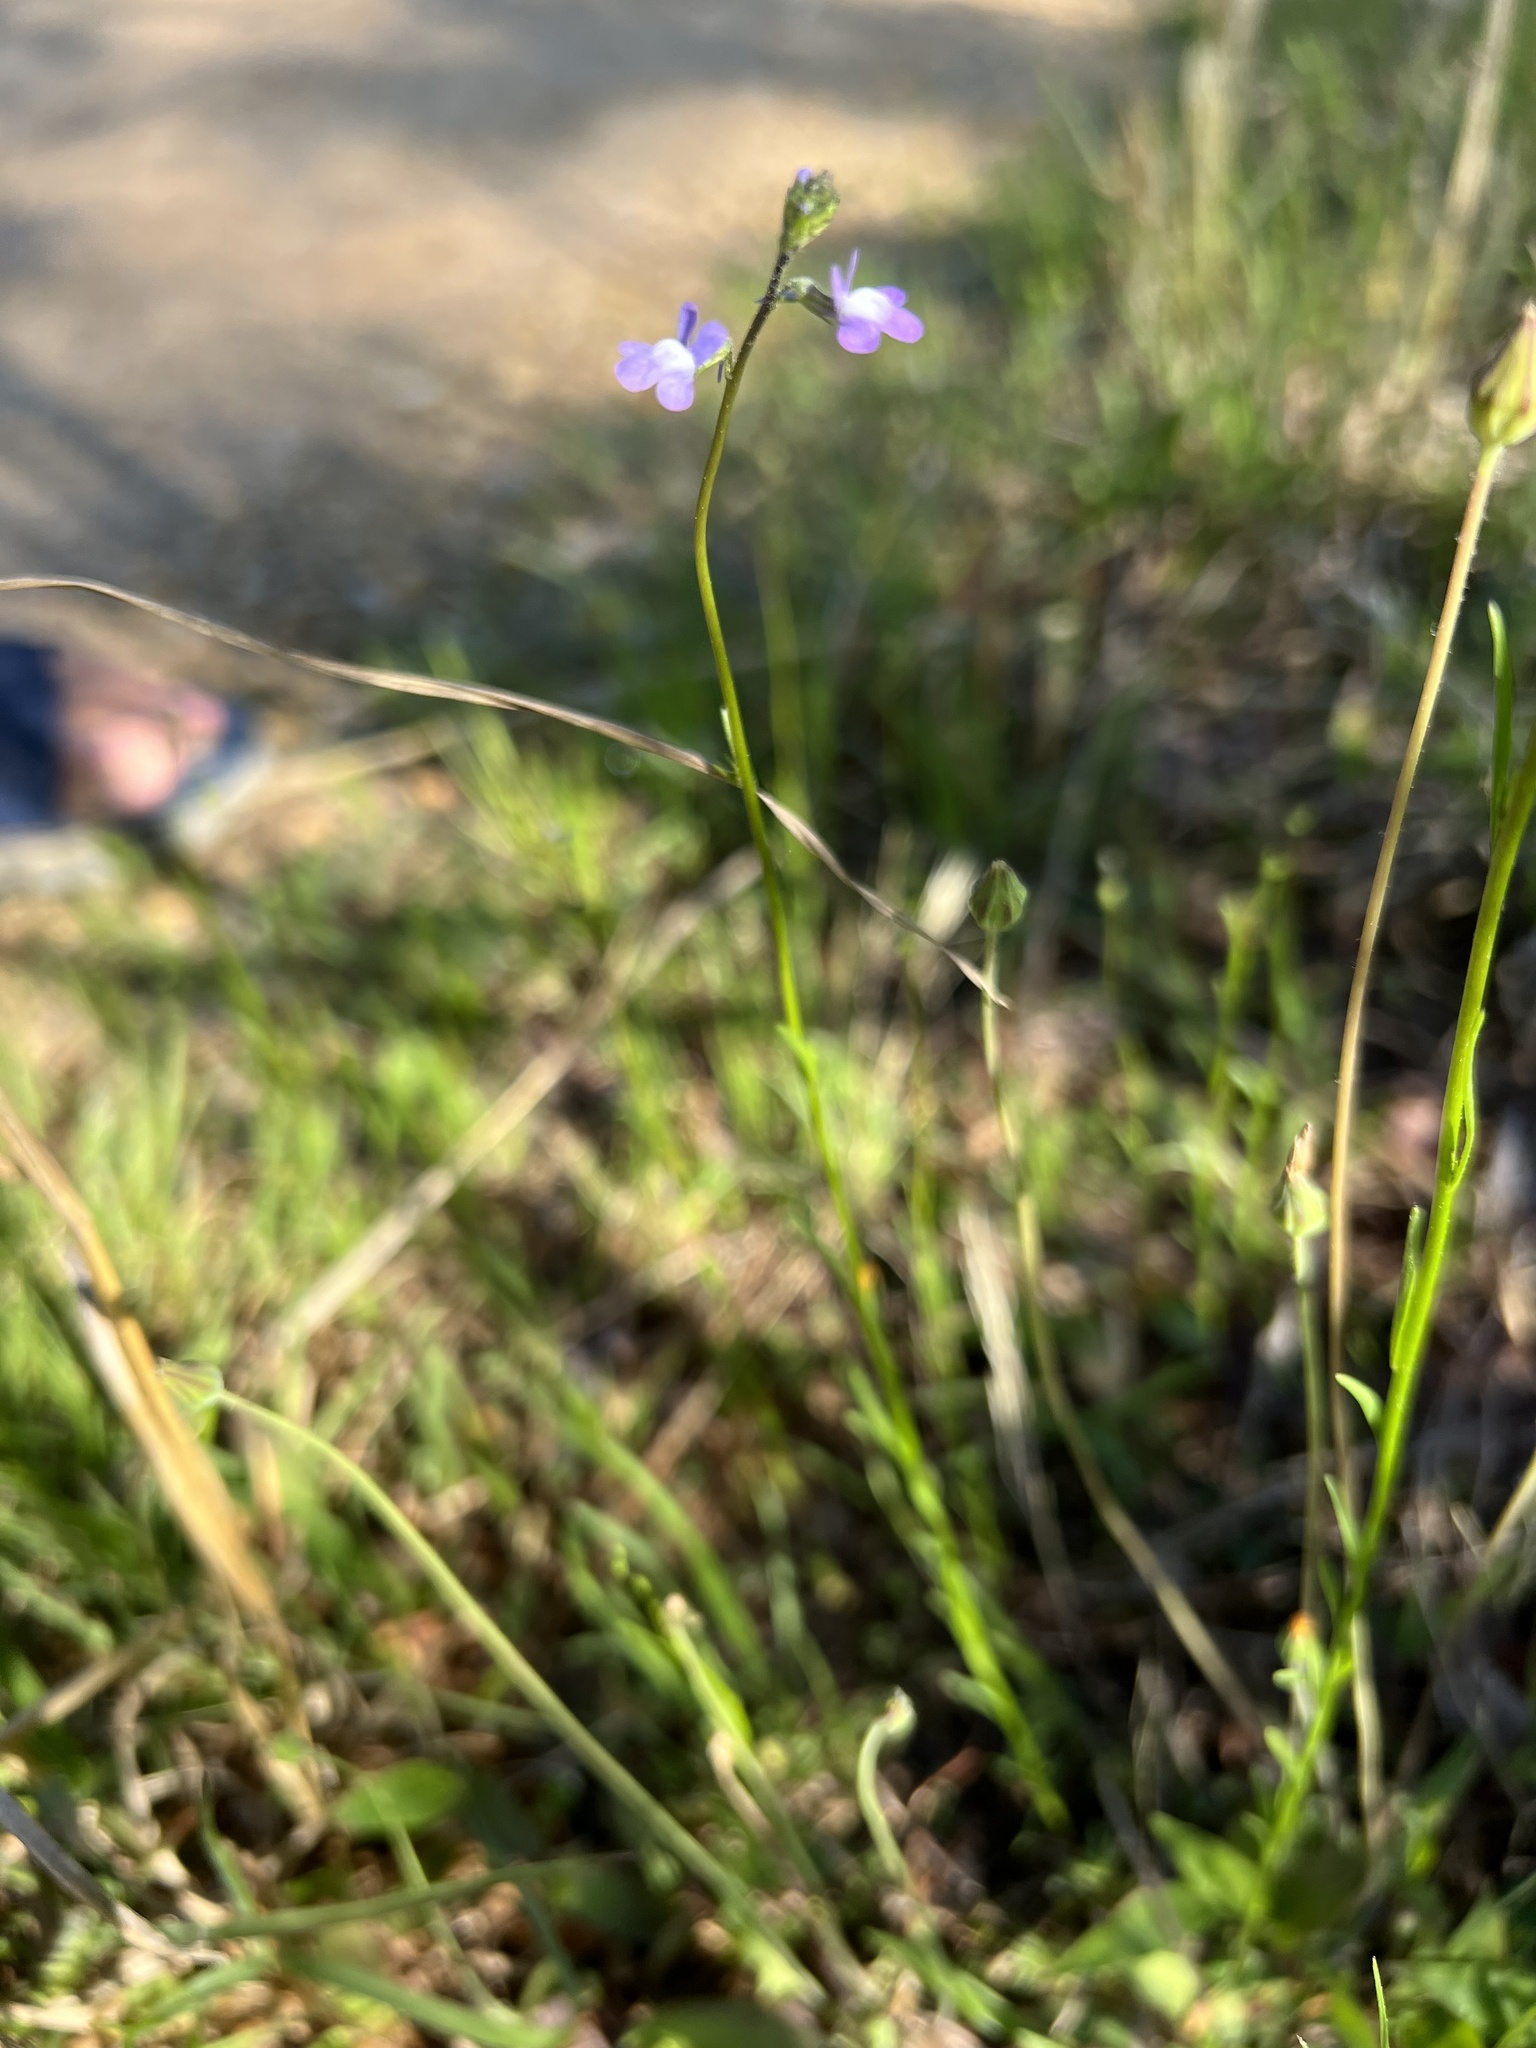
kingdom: Plantae
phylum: Tracheophyta
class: Magnoliopsida
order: Lamiales
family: Plantaginaceae
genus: Nuttallanthus
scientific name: Nuttallanthus canadensis
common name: Blue toadflax
